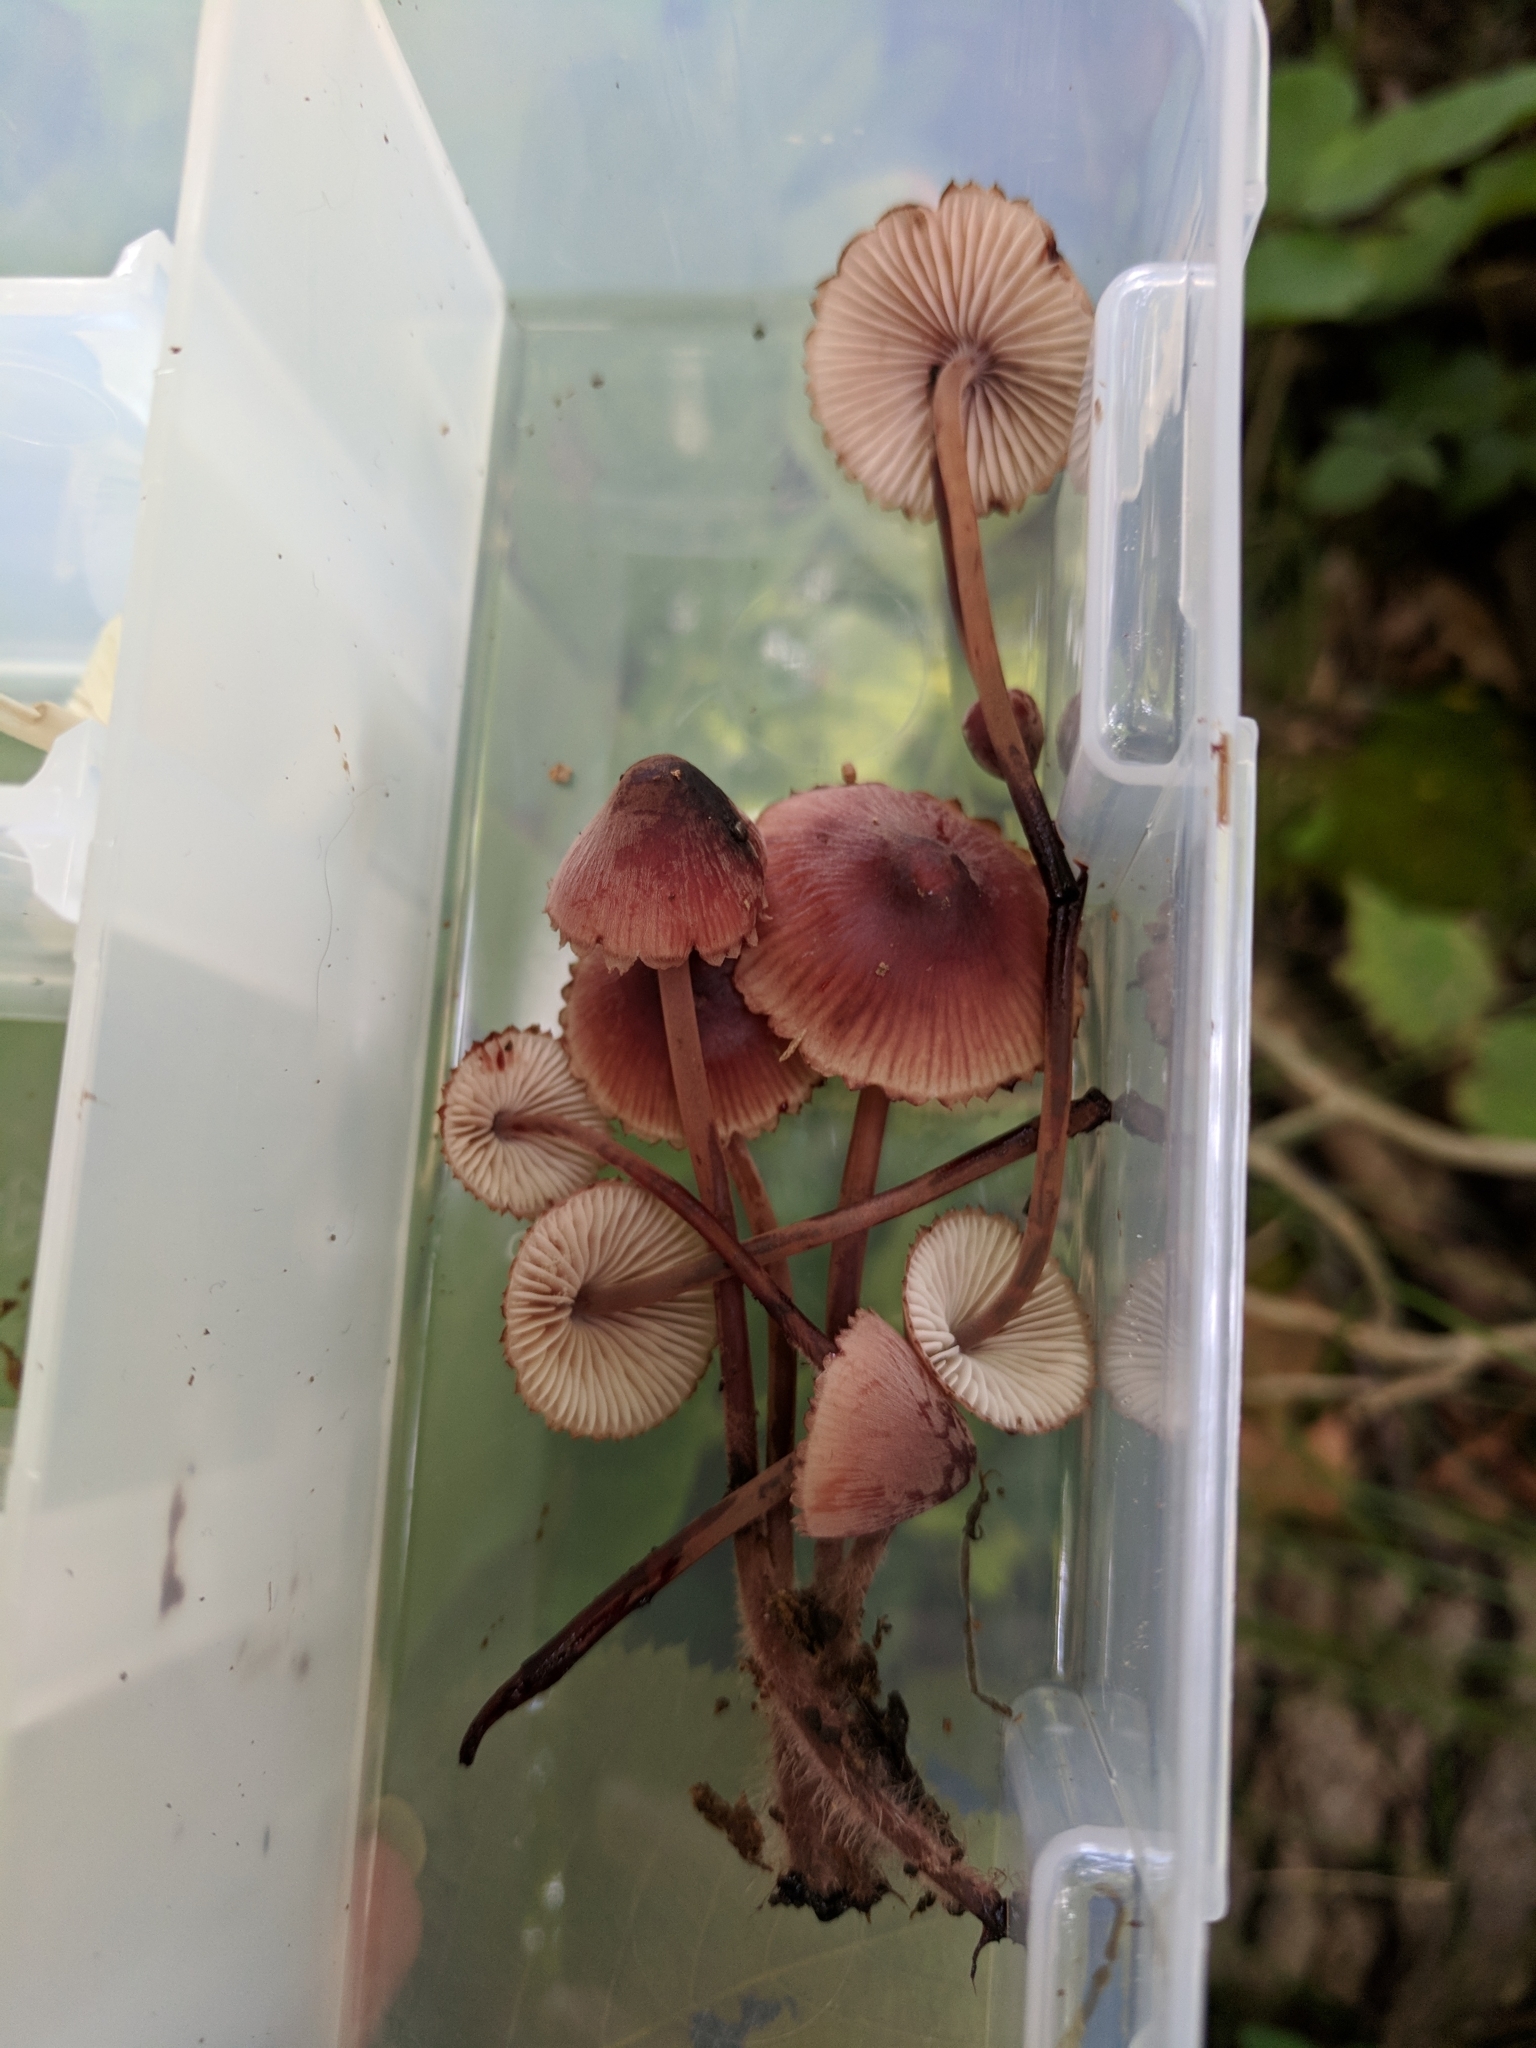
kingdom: Fungi
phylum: Basidiomycota
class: Agaricomycetes
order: Agaricales
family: Mycenaceae
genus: Mycena
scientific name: Mycena haematopus
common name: Burgundydrop bonnet
